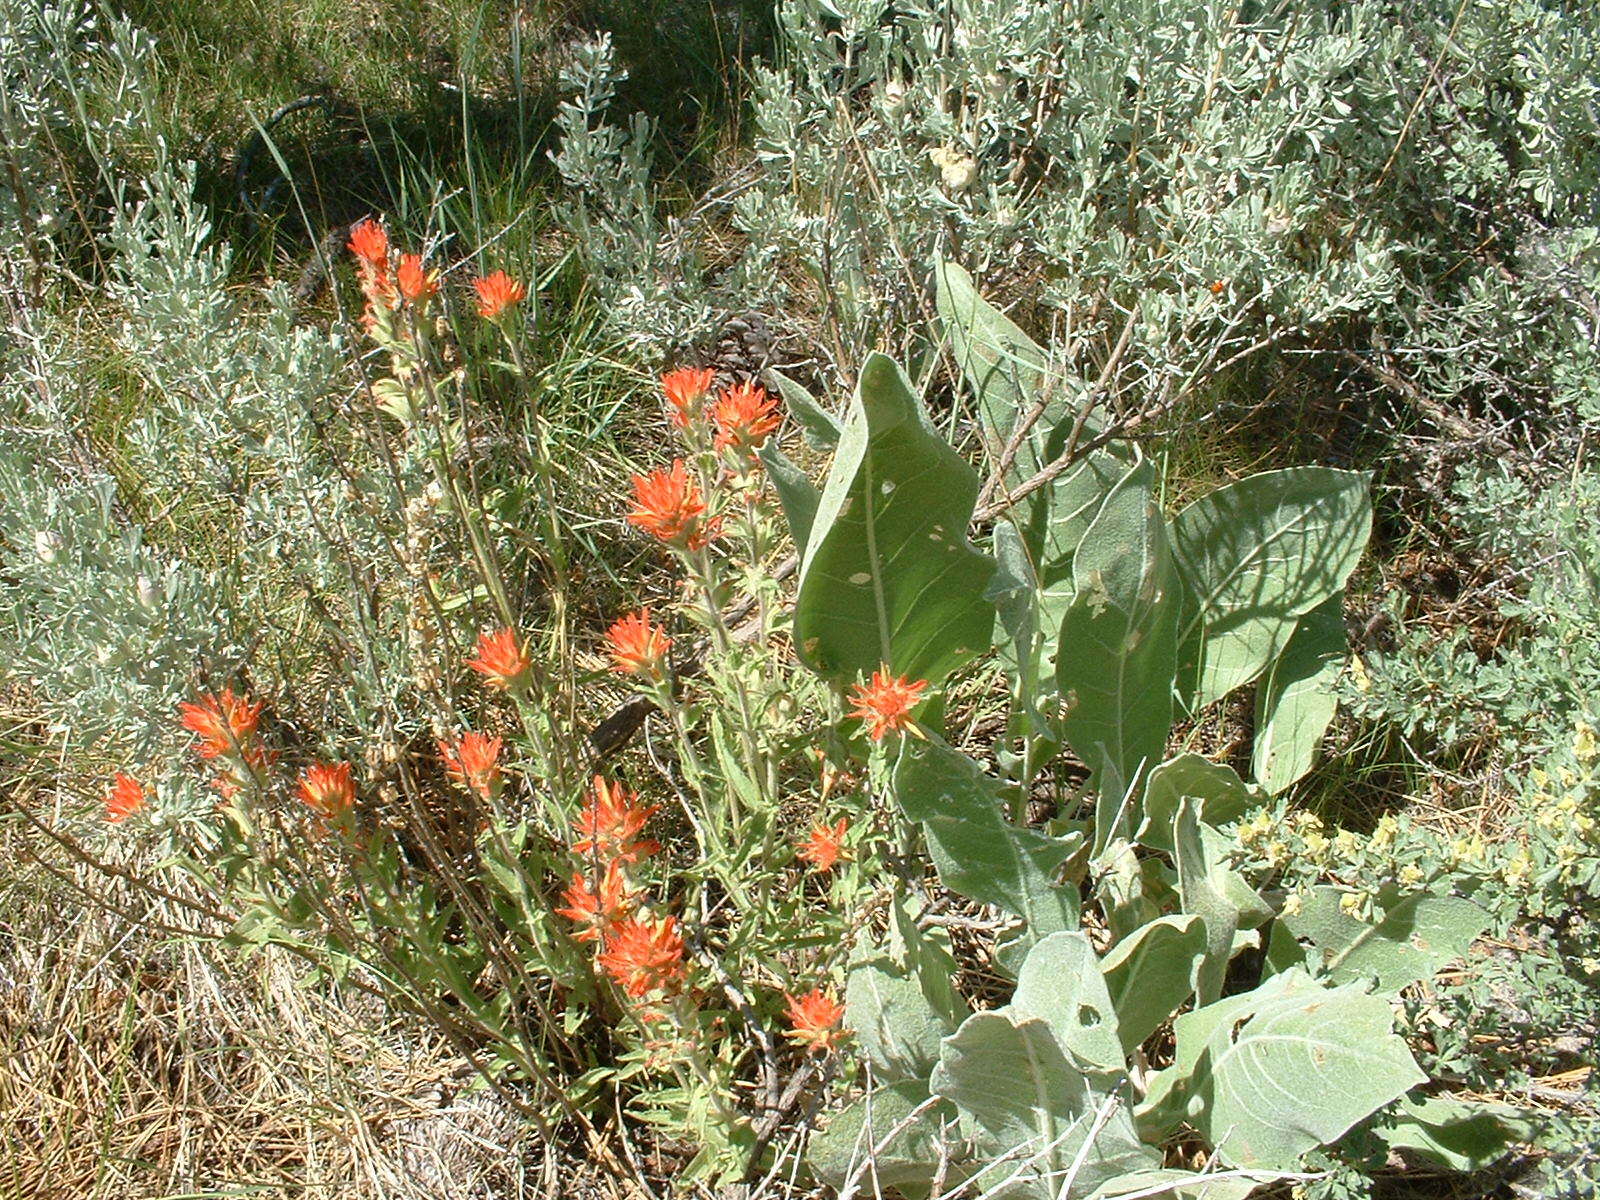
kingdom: Plantae
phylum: Tracheophyta
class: Magnoliopsida
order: Lamiales
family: Orobanchaceae
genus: Castilleja
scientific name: Castilleja applegatei
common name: Wavy-leaf paintbrush
